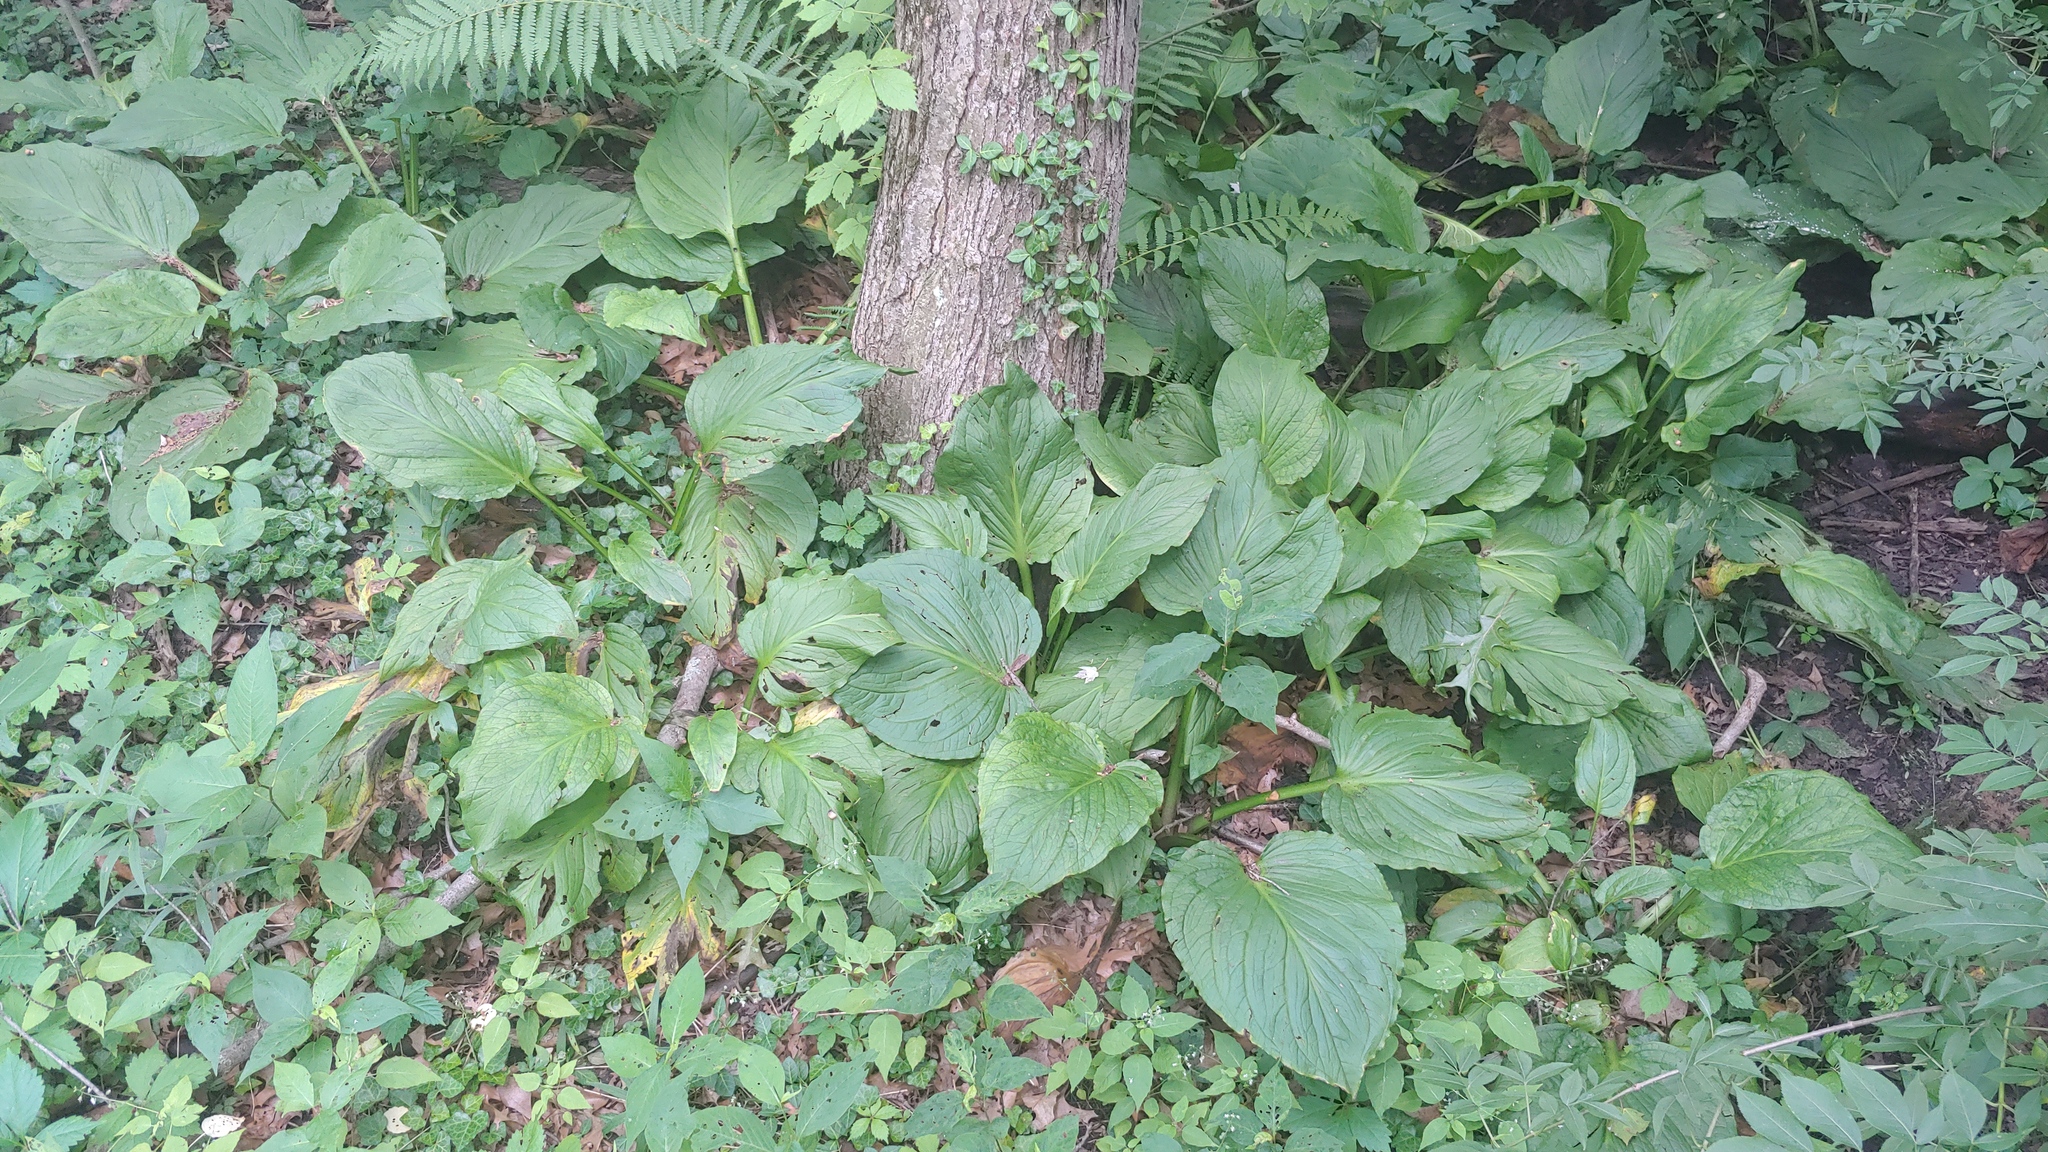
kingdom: Plantae
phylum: Tracheophyta
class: Liliopsida
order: Alismatales
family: Araceae
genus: Symplocarpus
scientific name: Symplocarpus foetidus
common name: Eastern skunk cabbage
